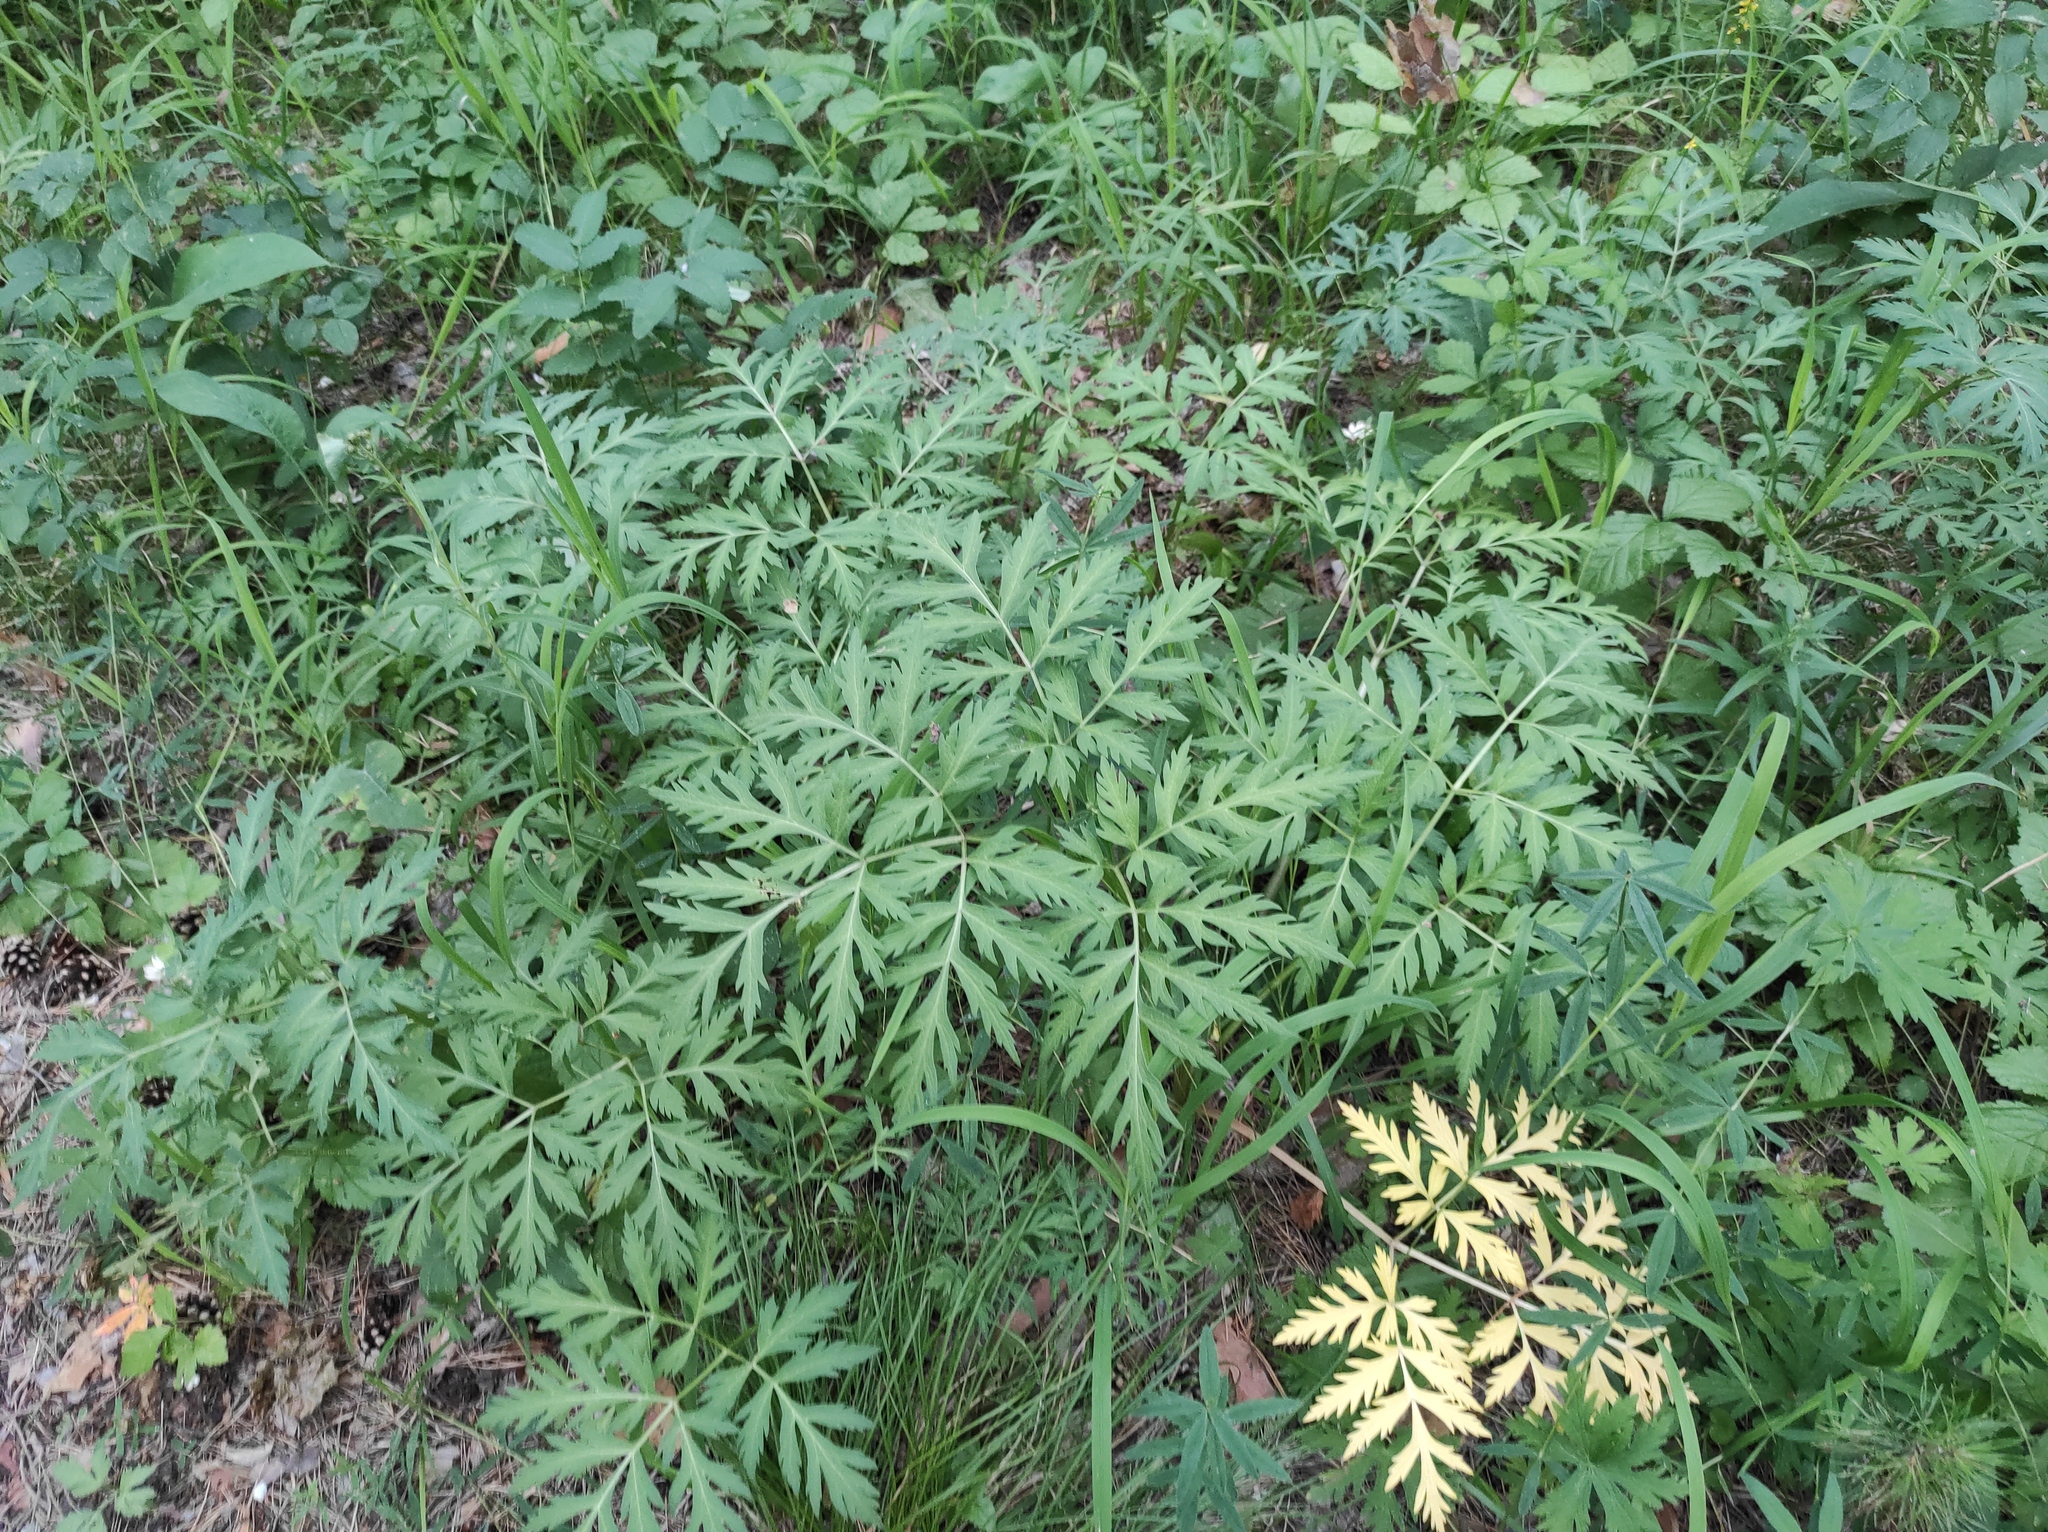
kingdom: Plantae
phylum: Tracheophyta
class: Magnoliopsida
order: Apiales
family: Apiaceae
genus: Pleurospermum
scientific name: Pleurospermum uralense
